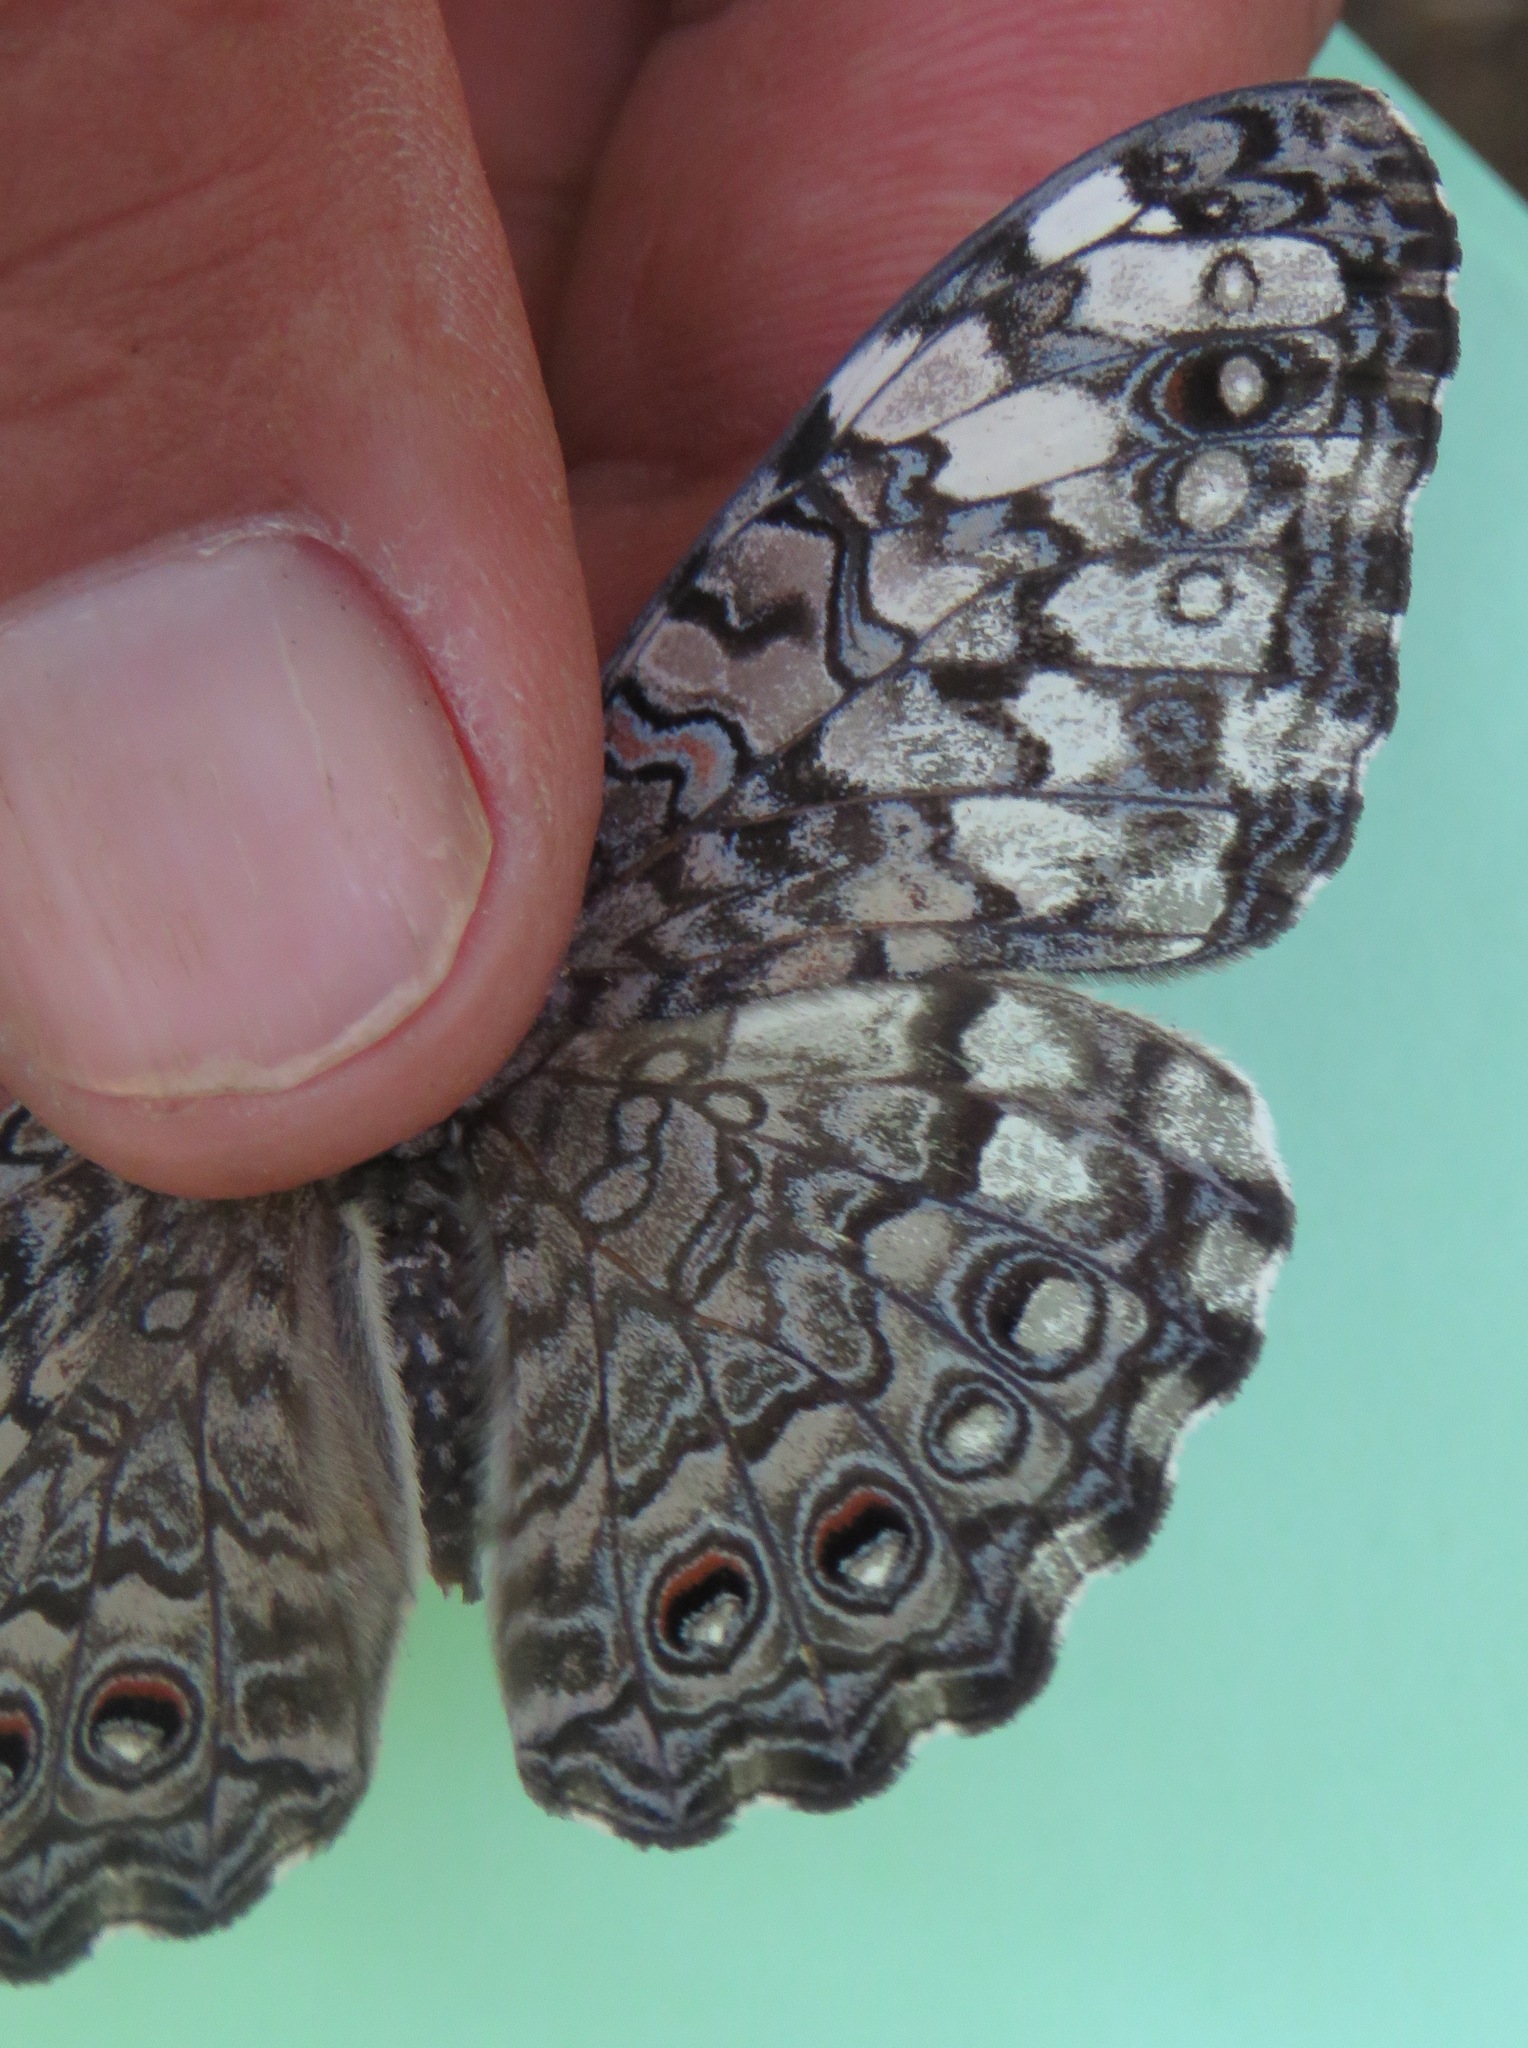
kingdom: Animalia
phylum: Arthropoda
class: Insecta
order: Lepidoptera
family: Nymphalidae
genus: Hamadryas
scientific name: Hamadryas februa
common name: Gray cracker
